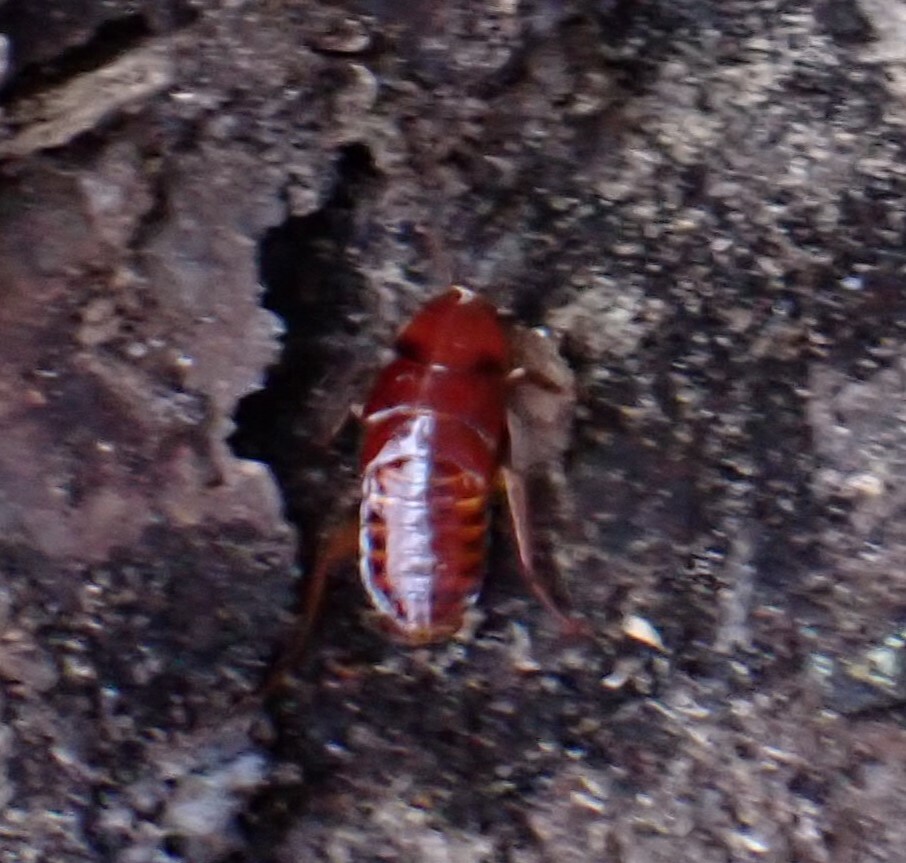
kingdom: Animalia
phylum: Arthropoda
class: Insecta
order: Blattodea
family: Blattidae
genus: Periplaneta
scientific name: Periplaneta fuliginosa
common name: Smokeybrown cockroad
